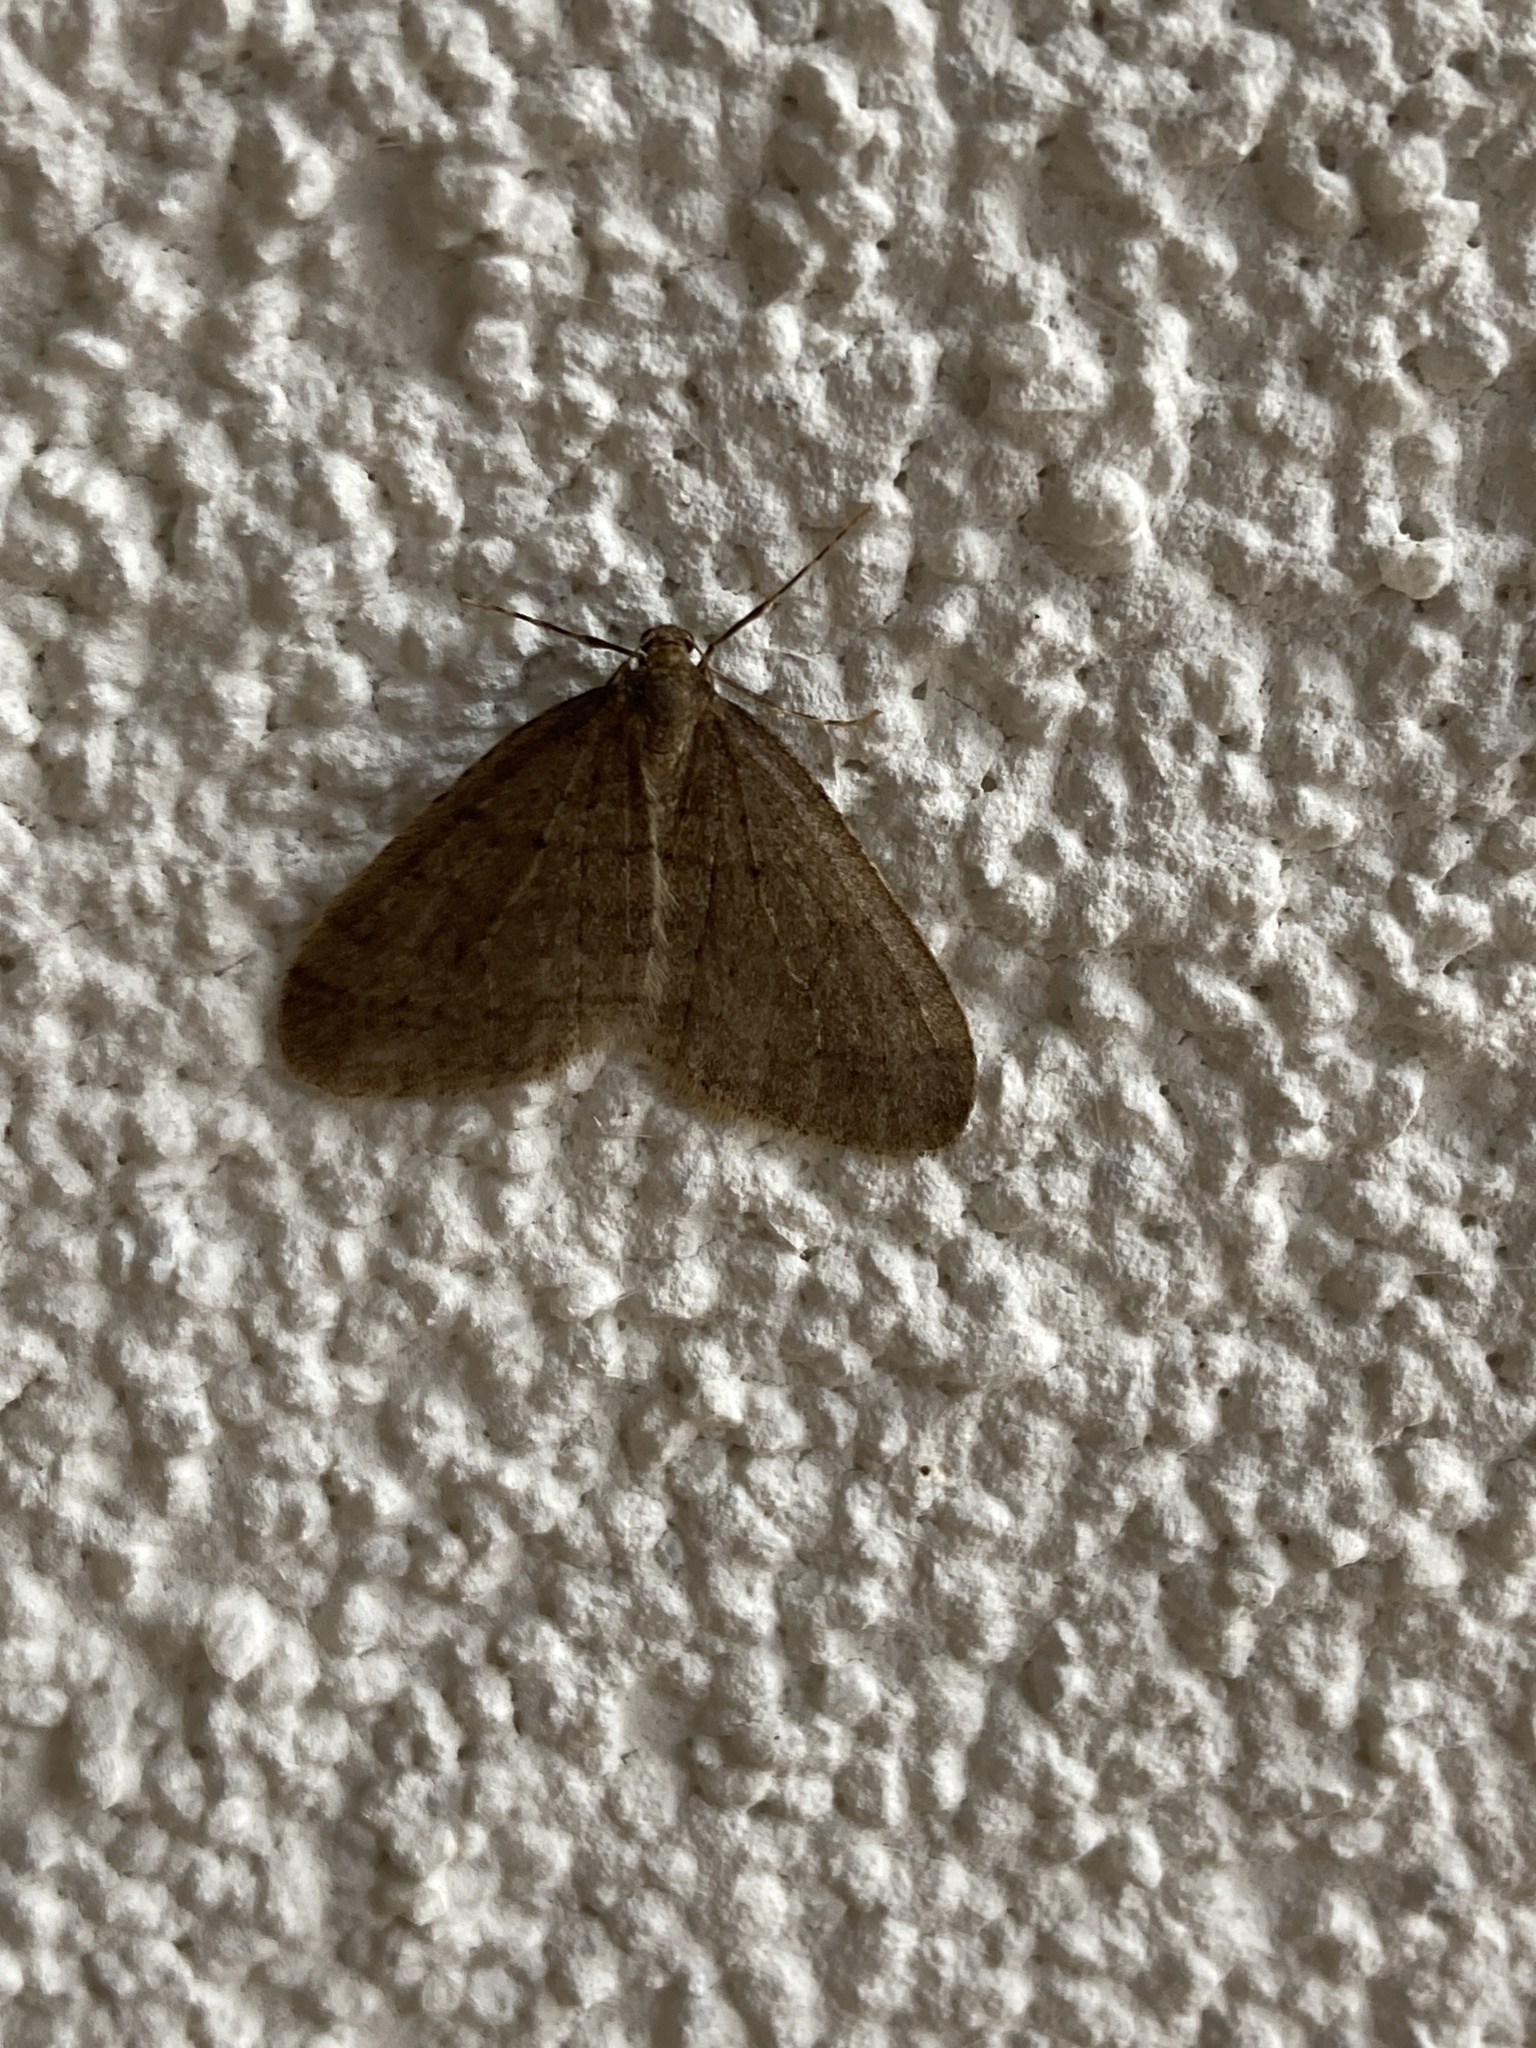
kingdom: Animalia
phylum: Arthropoda
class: Insecta
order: Lepidoptera
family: Geometridae
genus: Operophtera
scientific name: Operophtera fagata
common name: Northern winter moth
